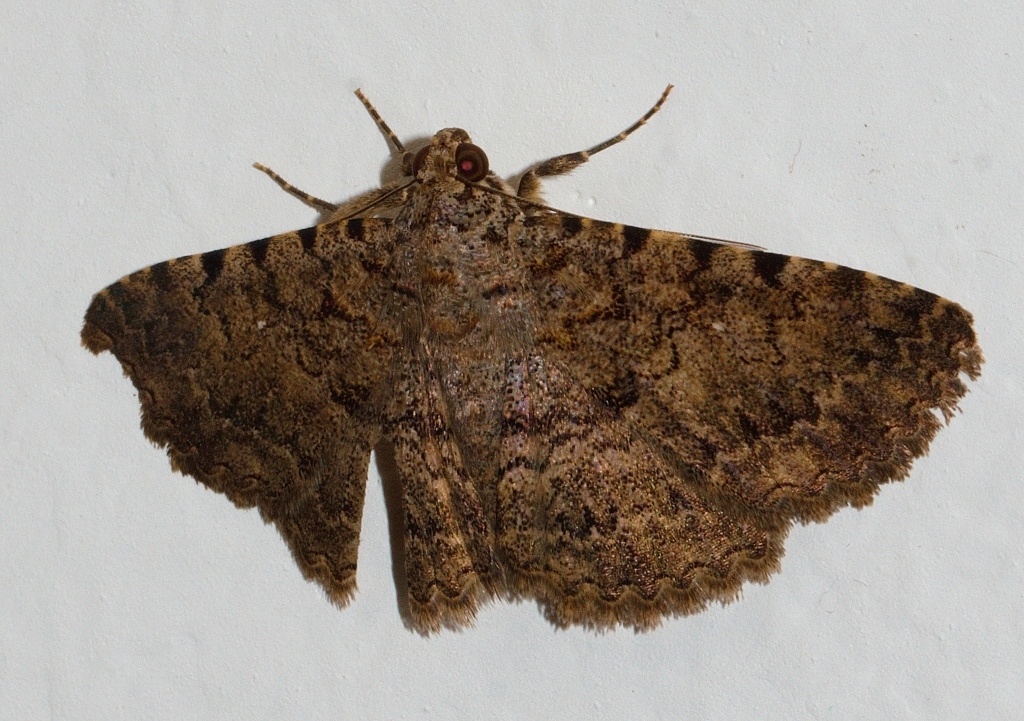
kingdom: Animalia
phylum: Arthropoda
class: Insecta
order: Lepidoptera
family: Erebidae
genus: Polydesma
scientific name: Polydesma sagulata
